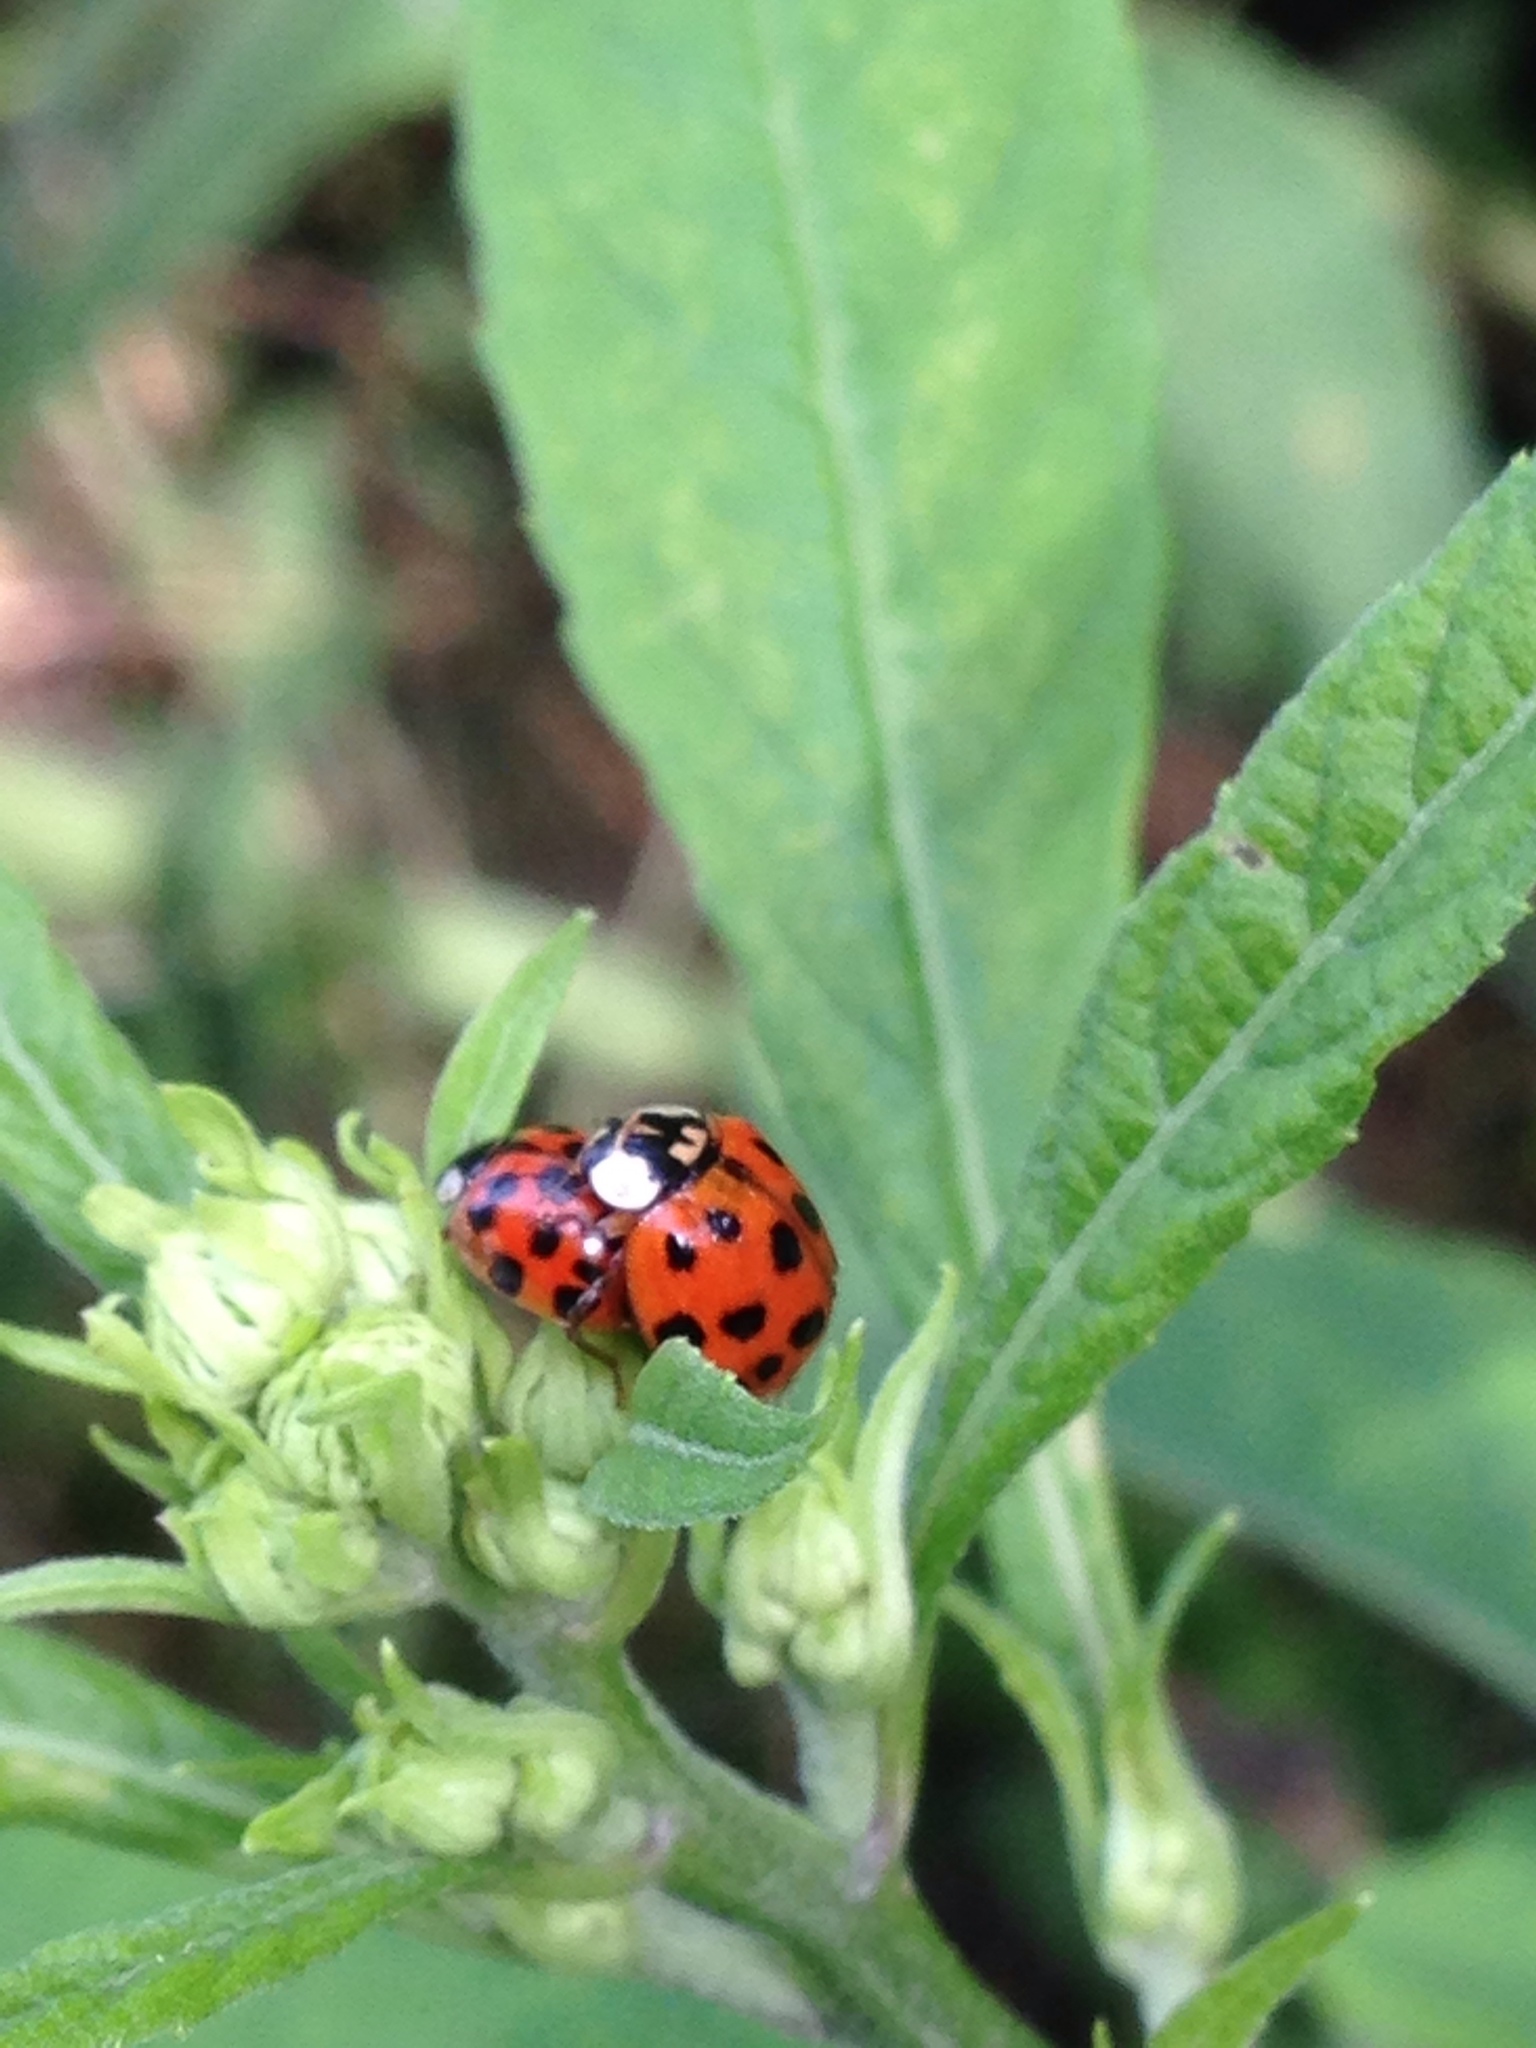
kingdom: Animalia
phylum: Arthropoda
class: Insecta
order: Coleoptera
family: Coccinellidae
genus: Harmonia
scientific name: Harmonia axyridis
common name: Harlequin ladybird
